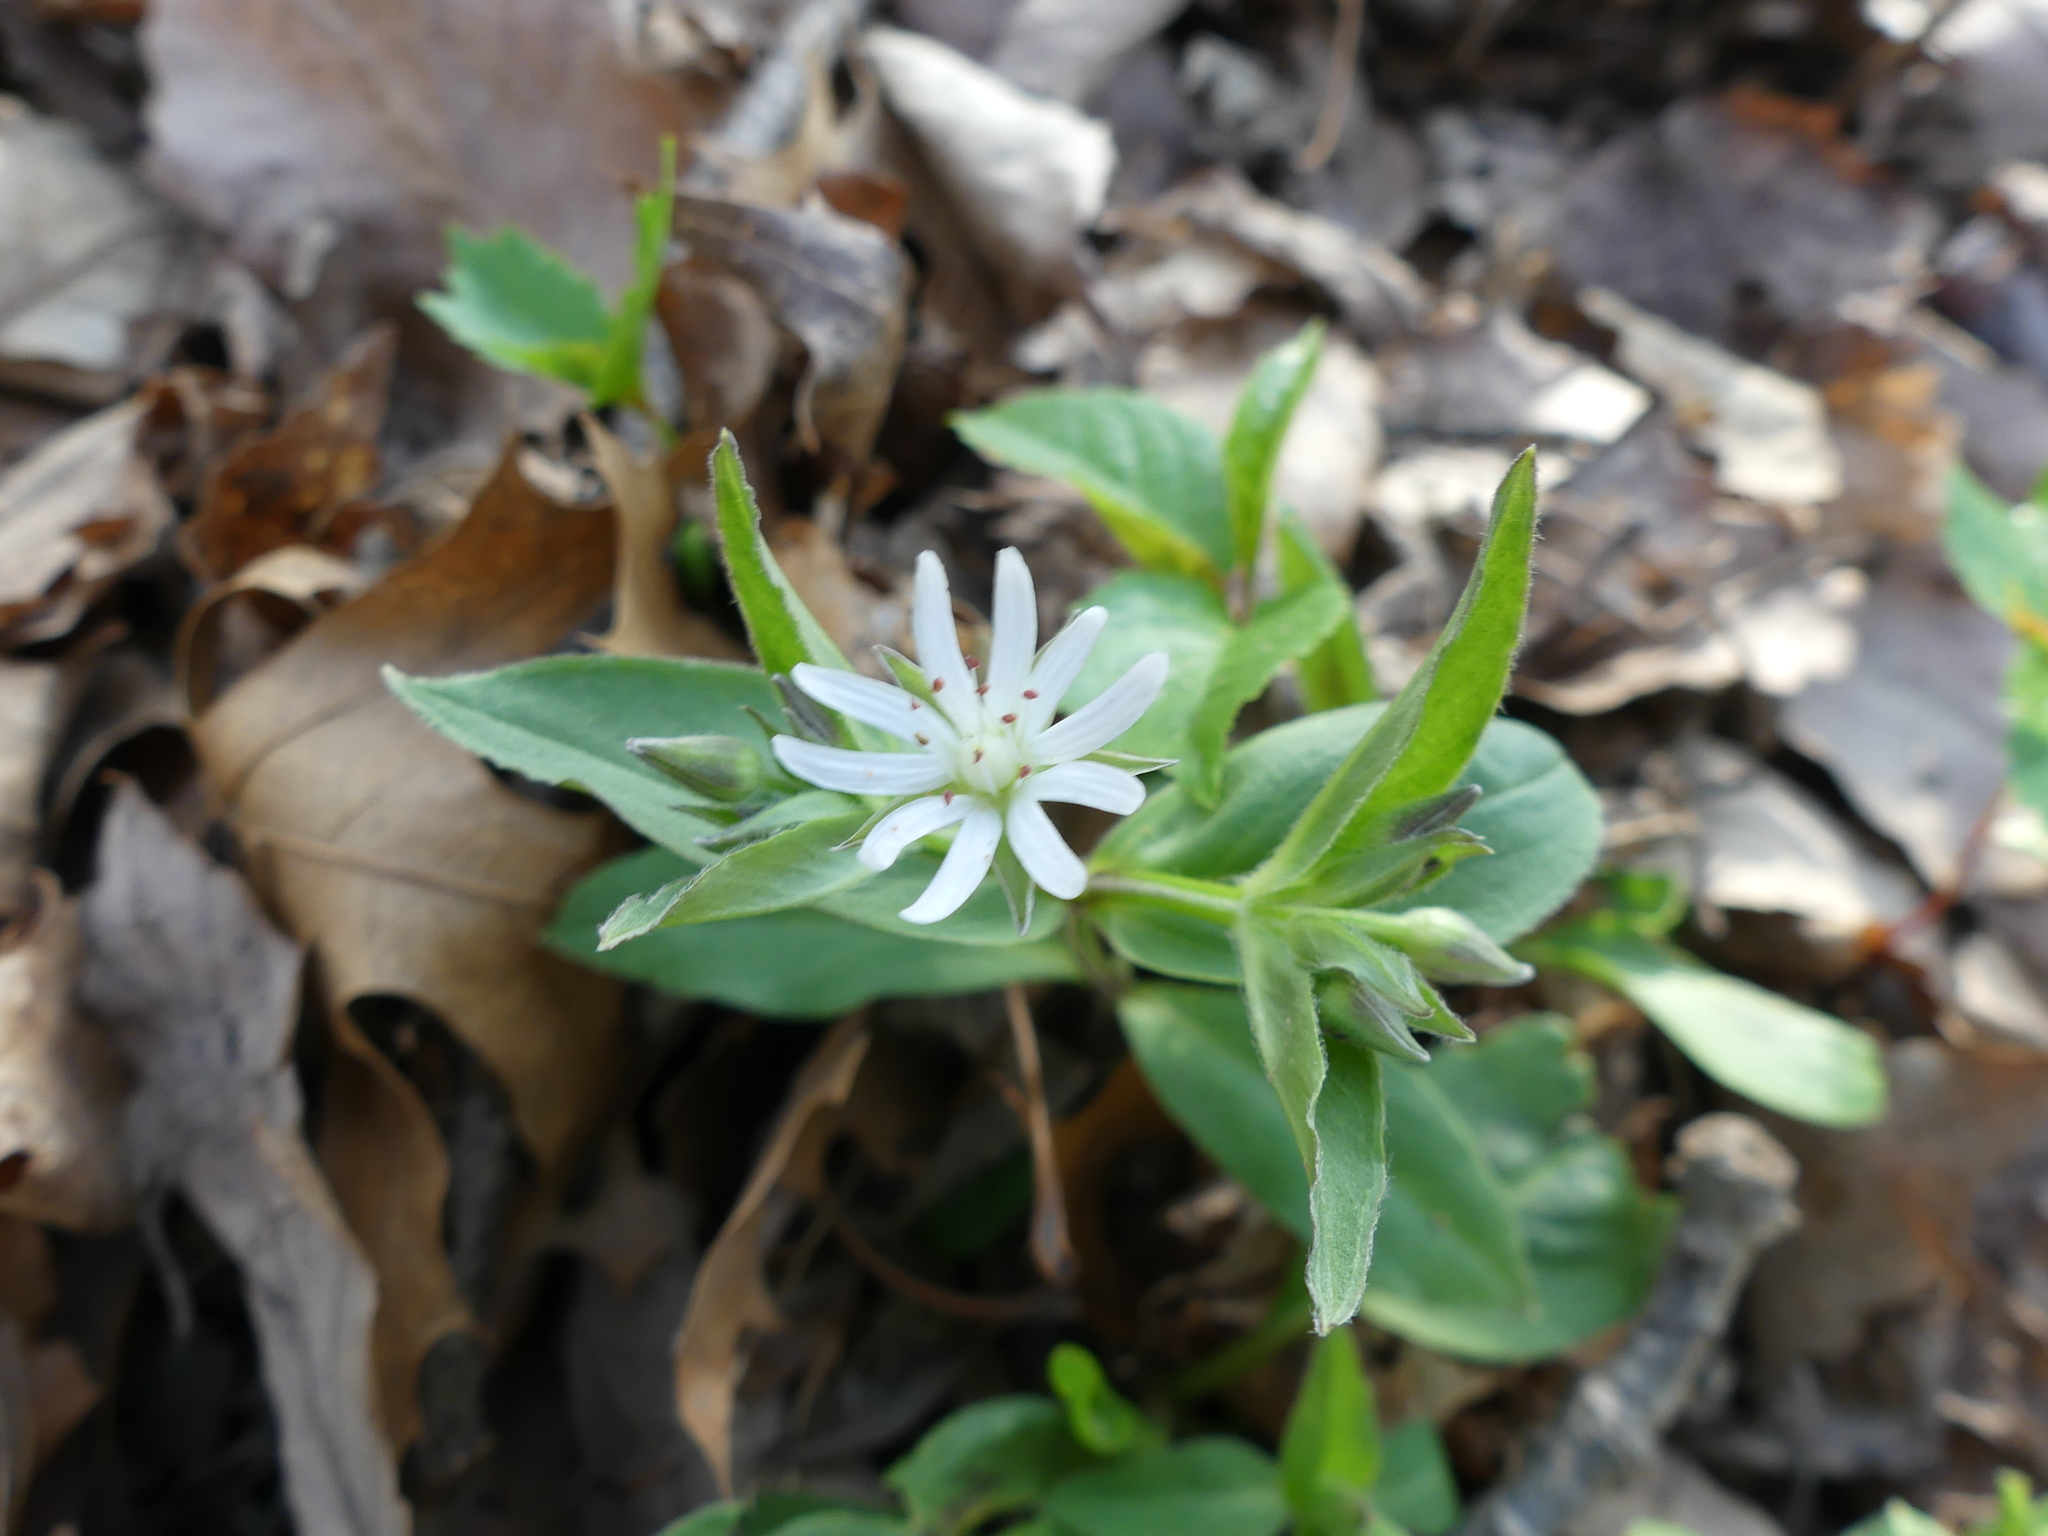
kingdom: Plantae
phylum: Tracheophyta
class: Magnoliopsida
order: Caryophyllales
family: Caryophyllaceae
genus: Stellaria
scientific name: Stellaria pubera
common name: Star chickweed
